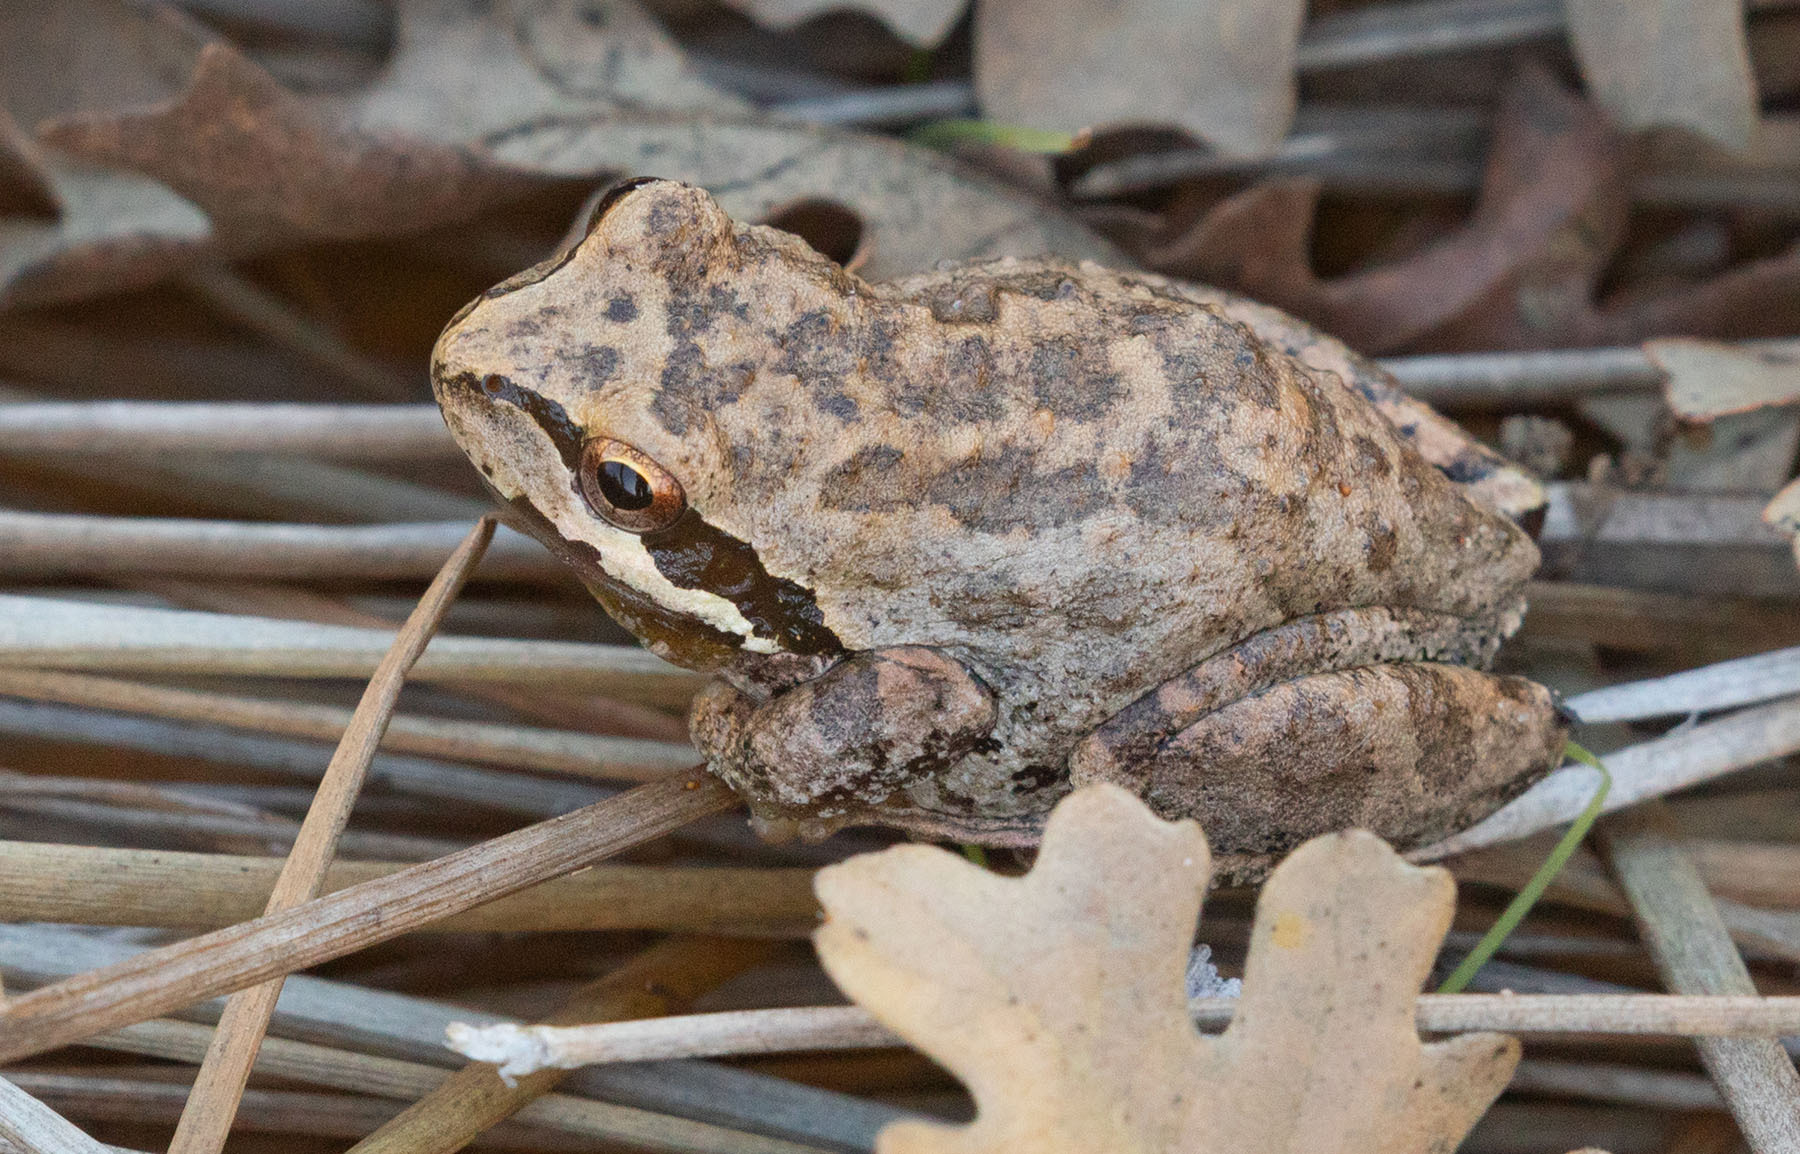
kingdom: Animalia
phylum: Chordata
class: Amphibia
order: Anura
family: Hylidae
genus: Pseudacris
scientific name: Pseudacris regilla
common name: Pacific chorus frog
